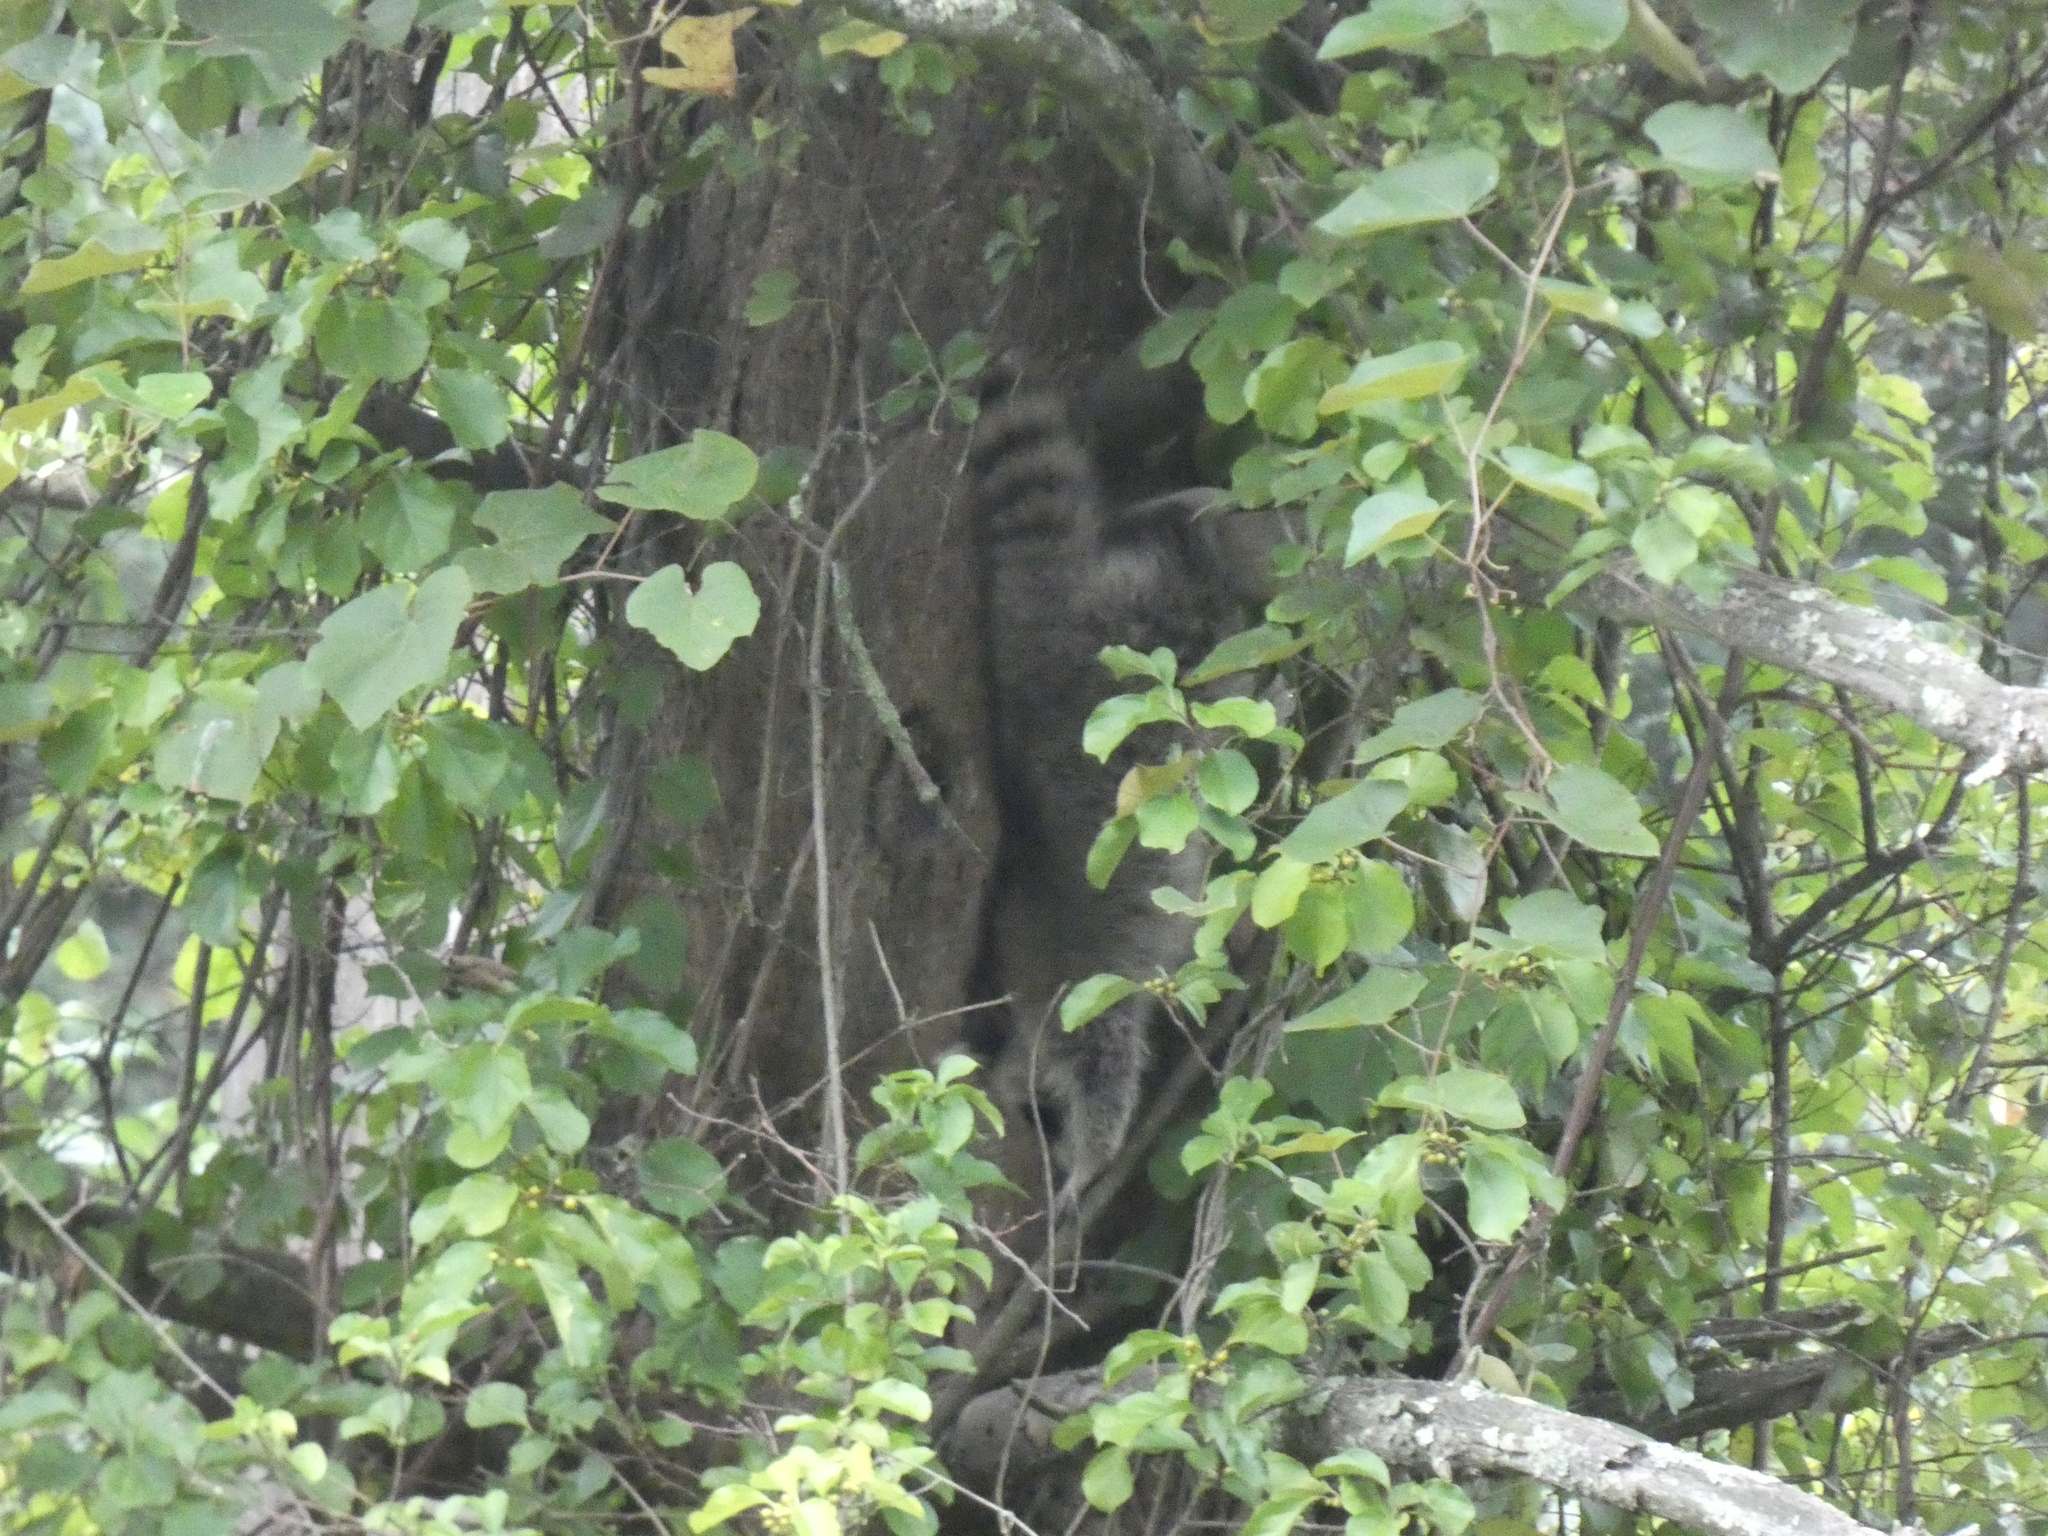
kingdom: Animalia
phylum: Chordata
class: Mammalia
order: Carnivora
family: Procyonidae
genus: Procyon
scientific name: Procyon lotor
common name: Raccoon
